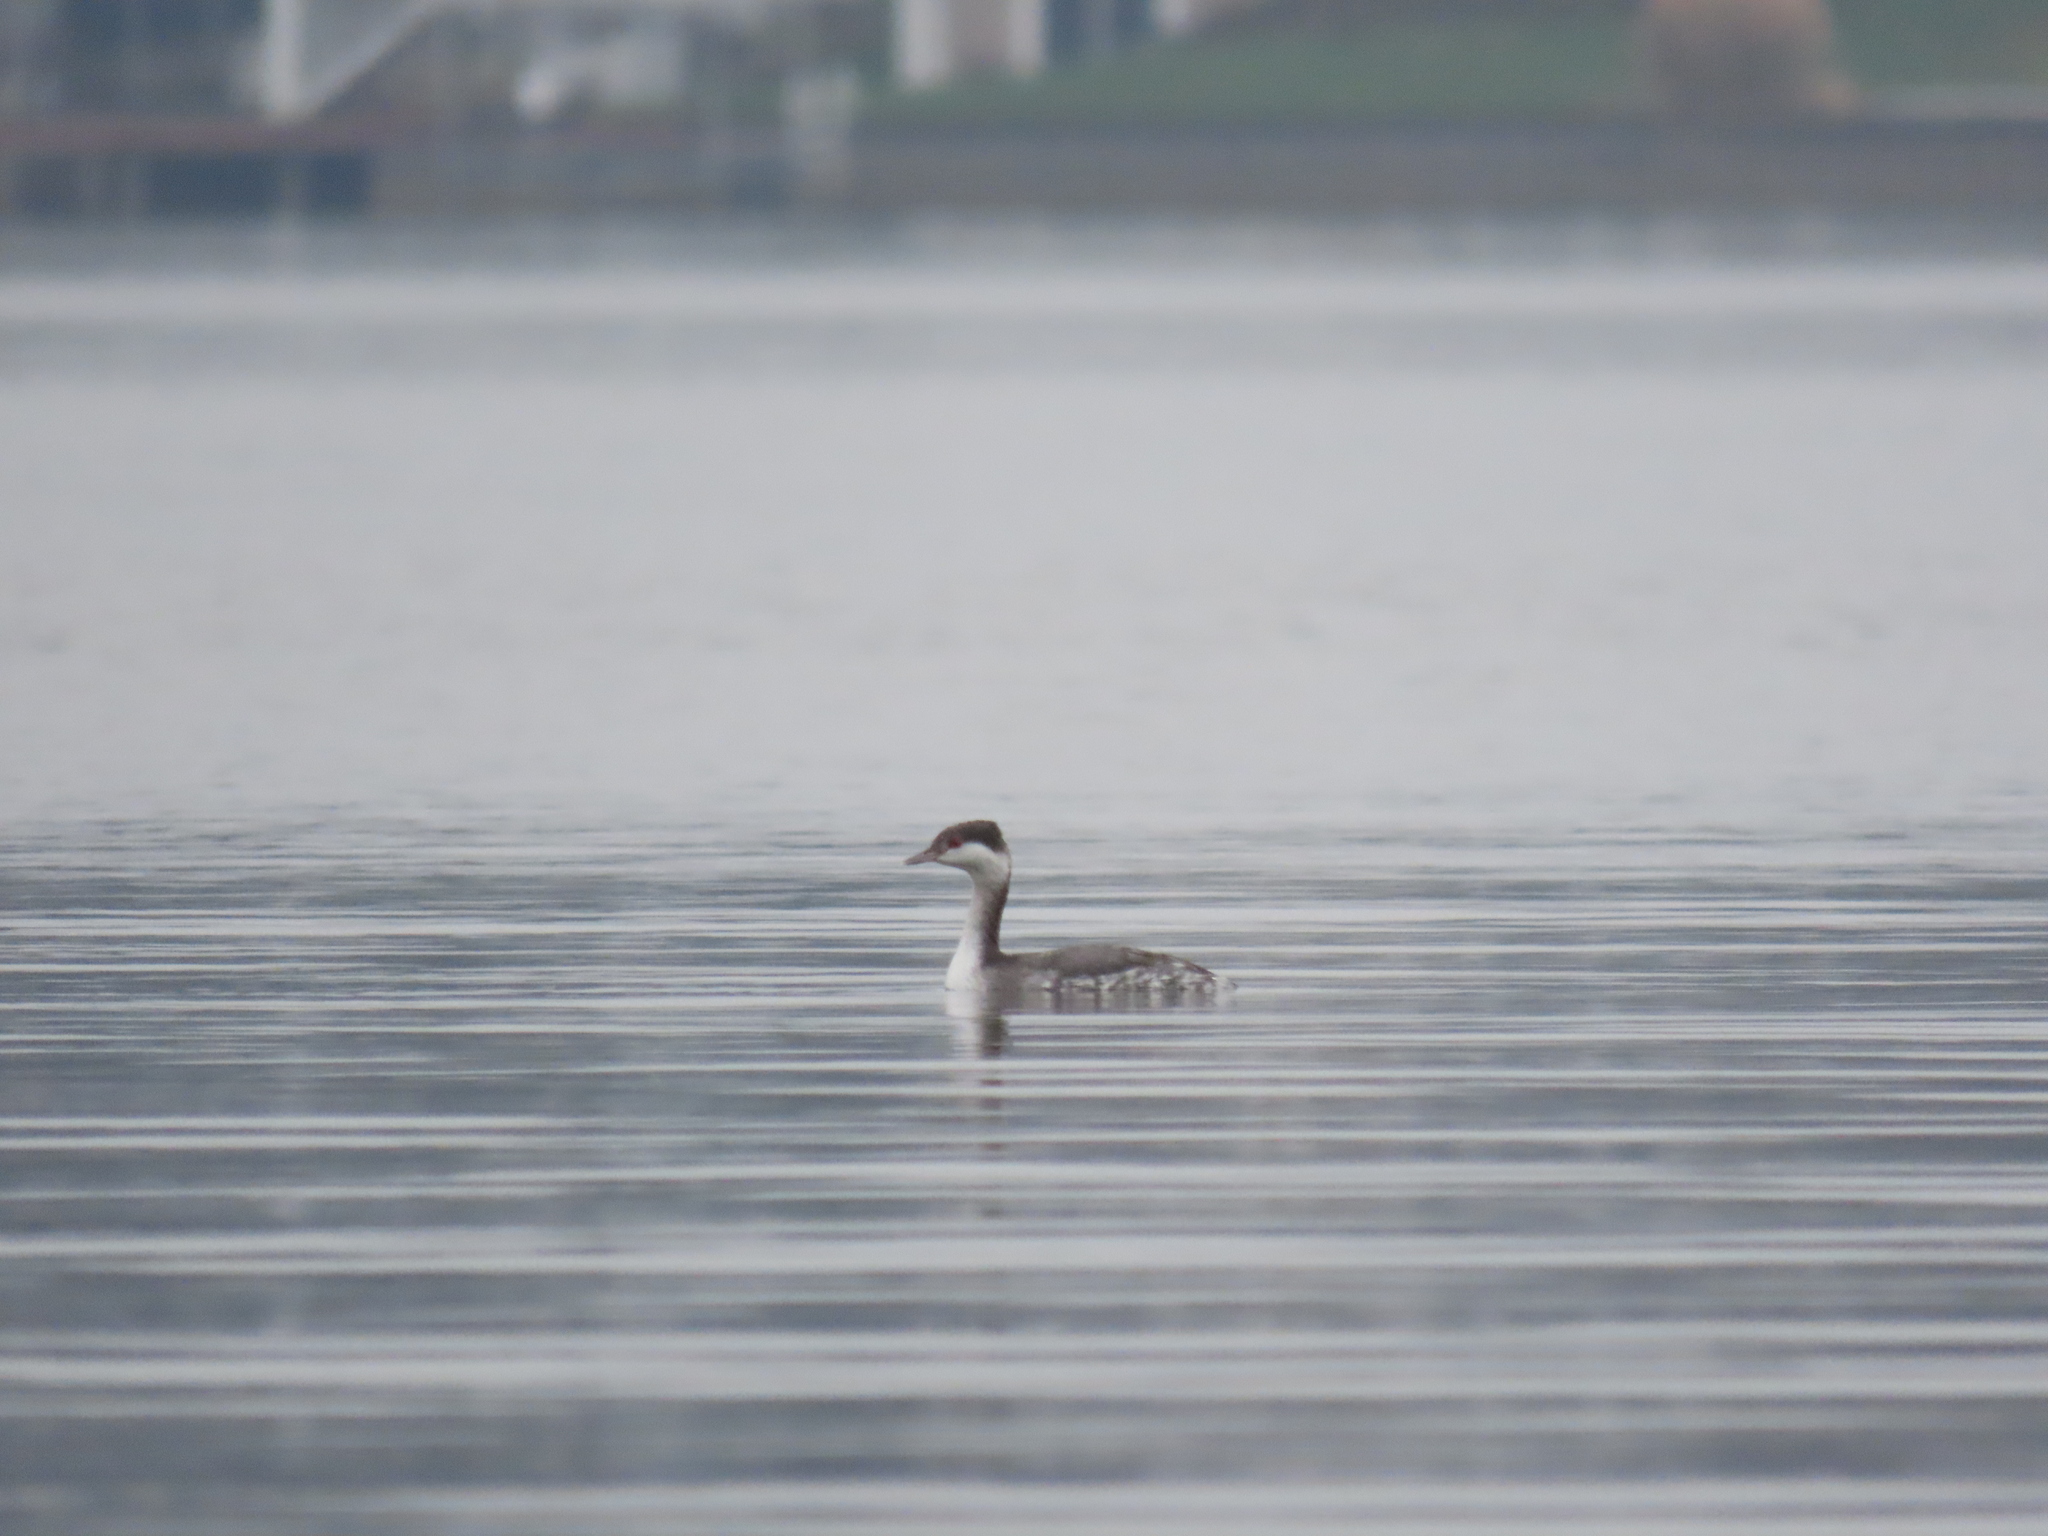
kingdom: Animalia
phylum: Chordata
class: Aves
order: Podicipediformes
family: Podicipedidae
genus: Podiceps
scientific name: Podiceps auritus
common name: Horned grebe
